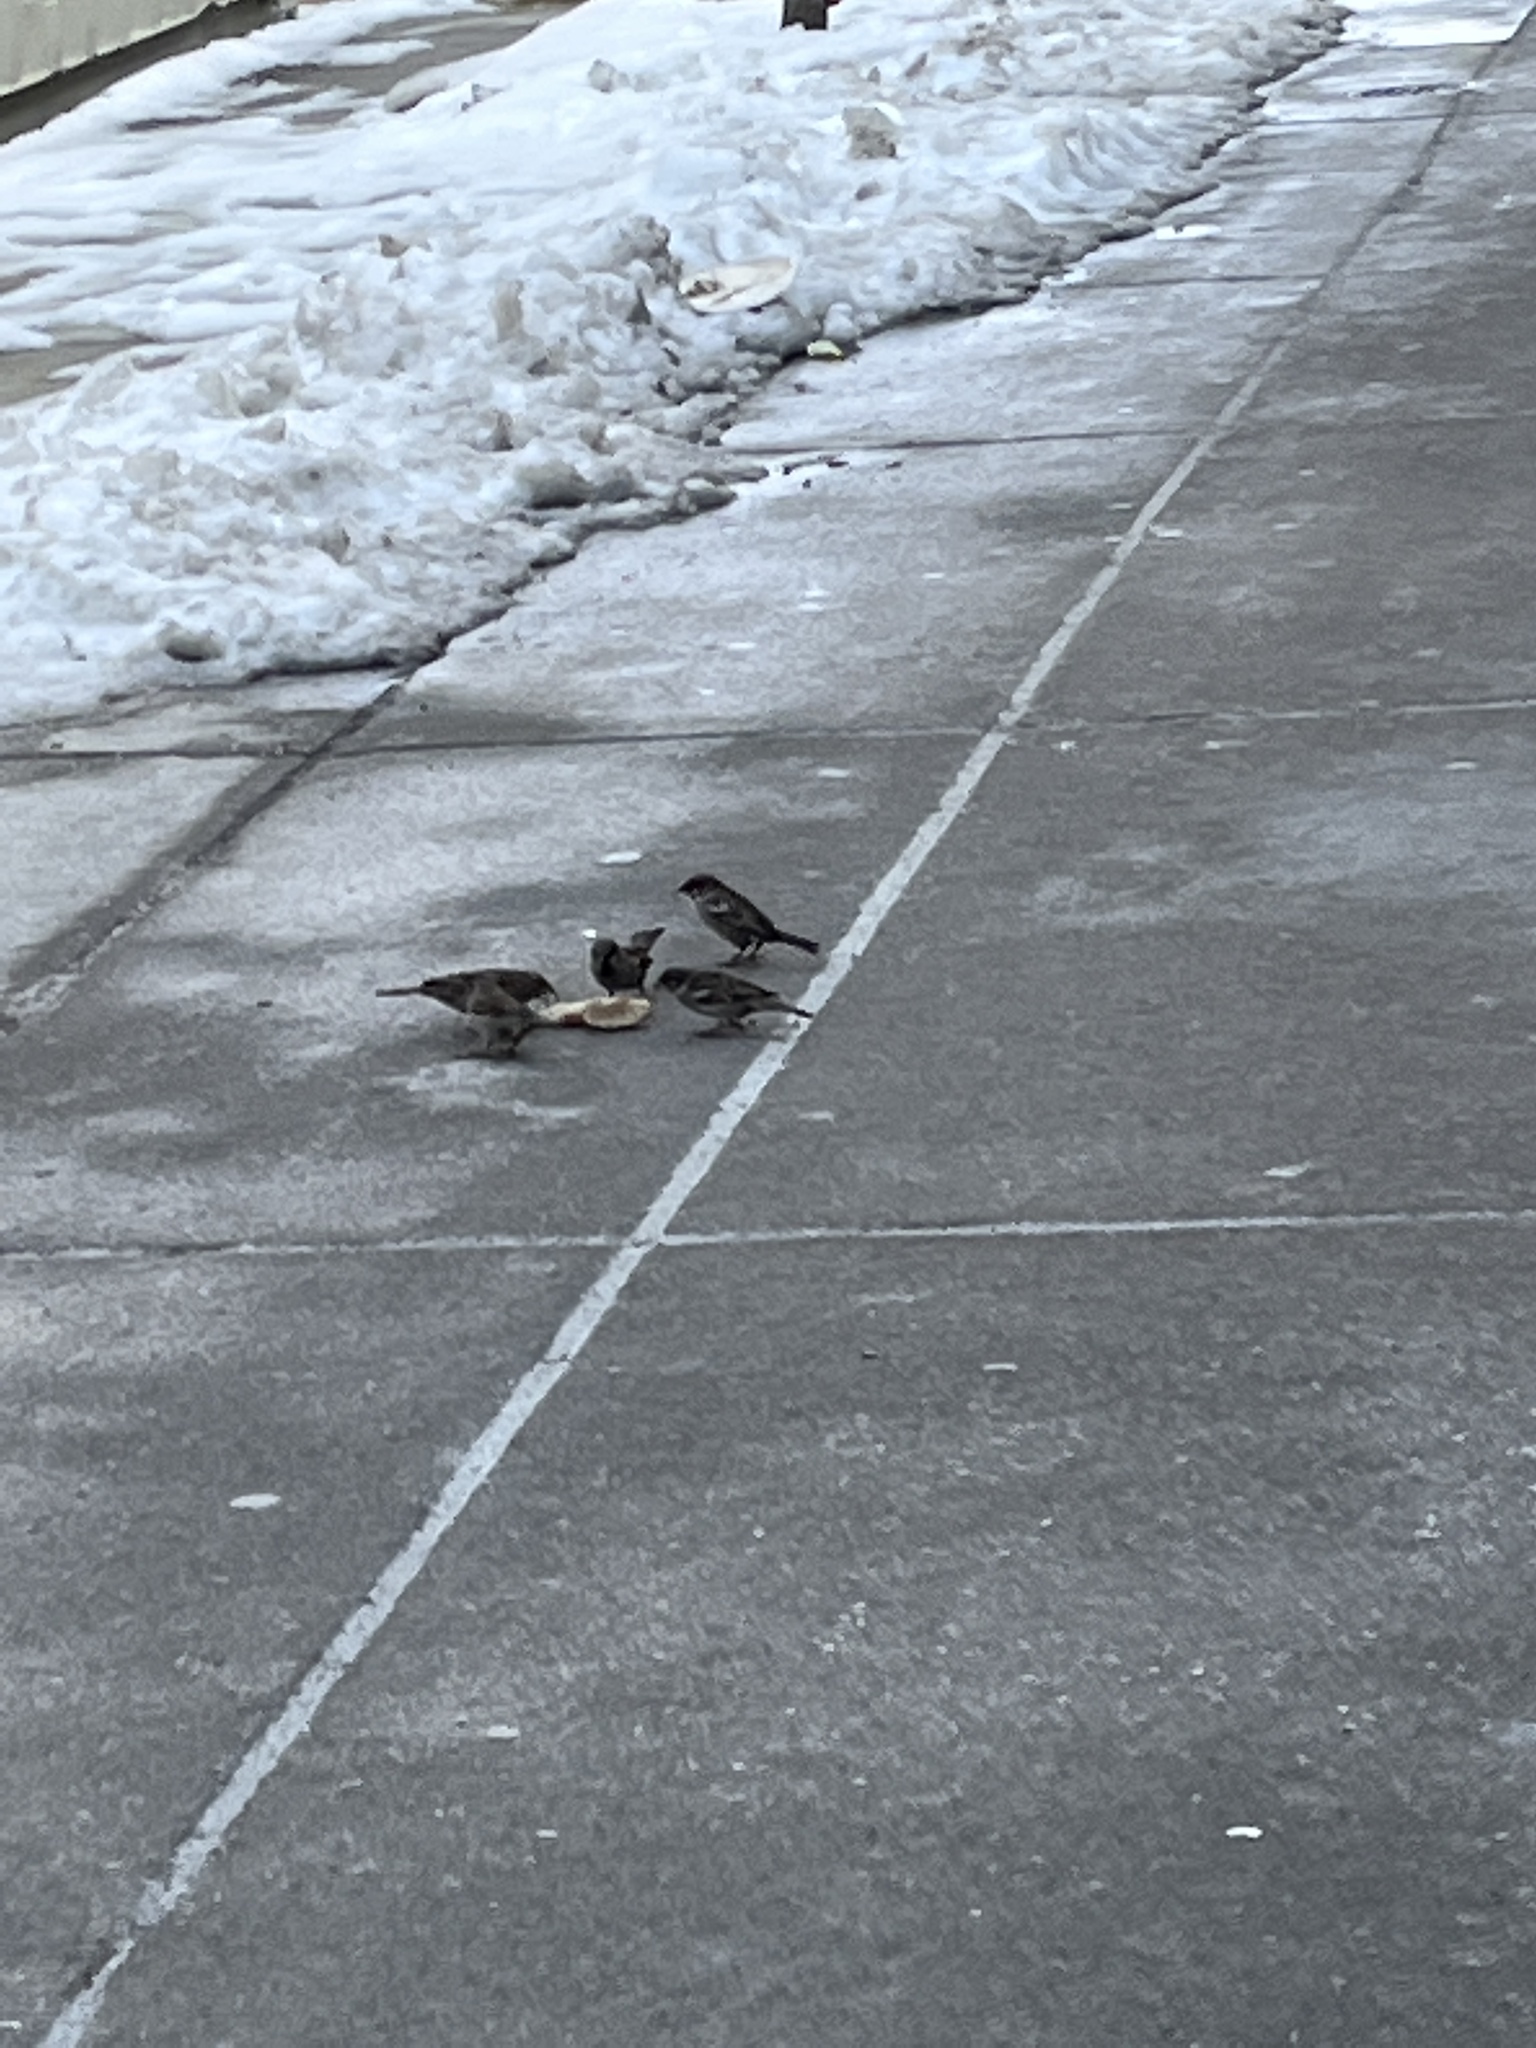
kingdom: Animalia
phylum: Chordata
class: Aves
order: Passeriformes
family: Passeridae
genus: Passer
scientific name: Passer domesticus
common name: House sparrow
